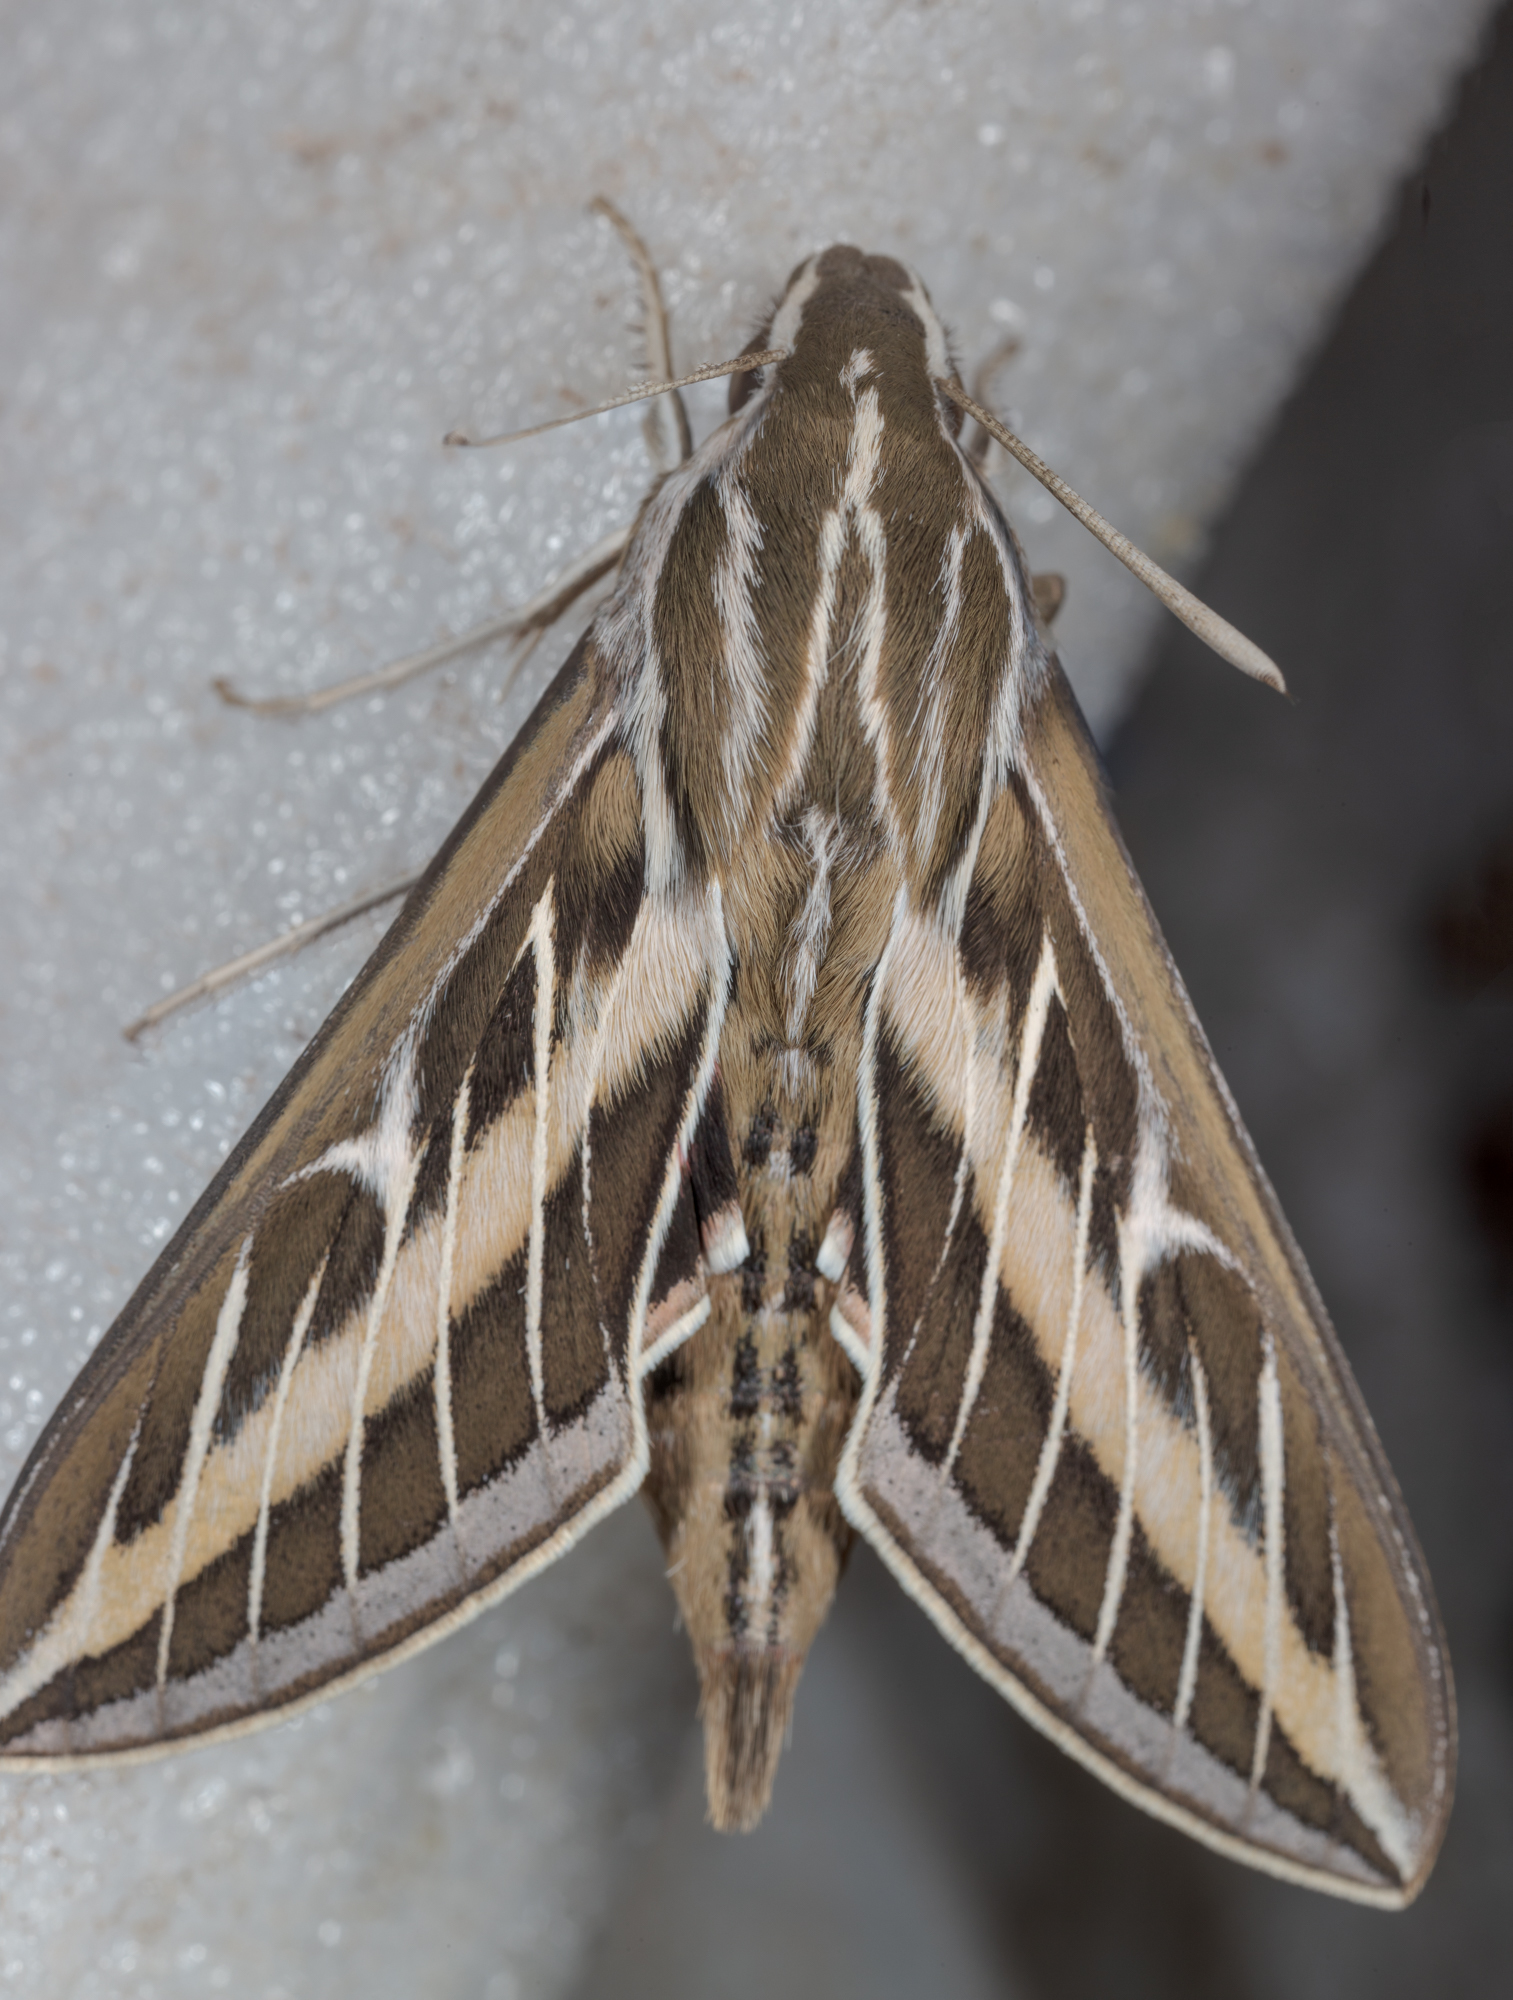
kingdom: Animalia
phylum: Arthropoda
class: Insecta
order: Lepidoptera
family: Sphingidae
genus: Hyles
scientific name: Hyles lineata
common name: White-lined sphinx
